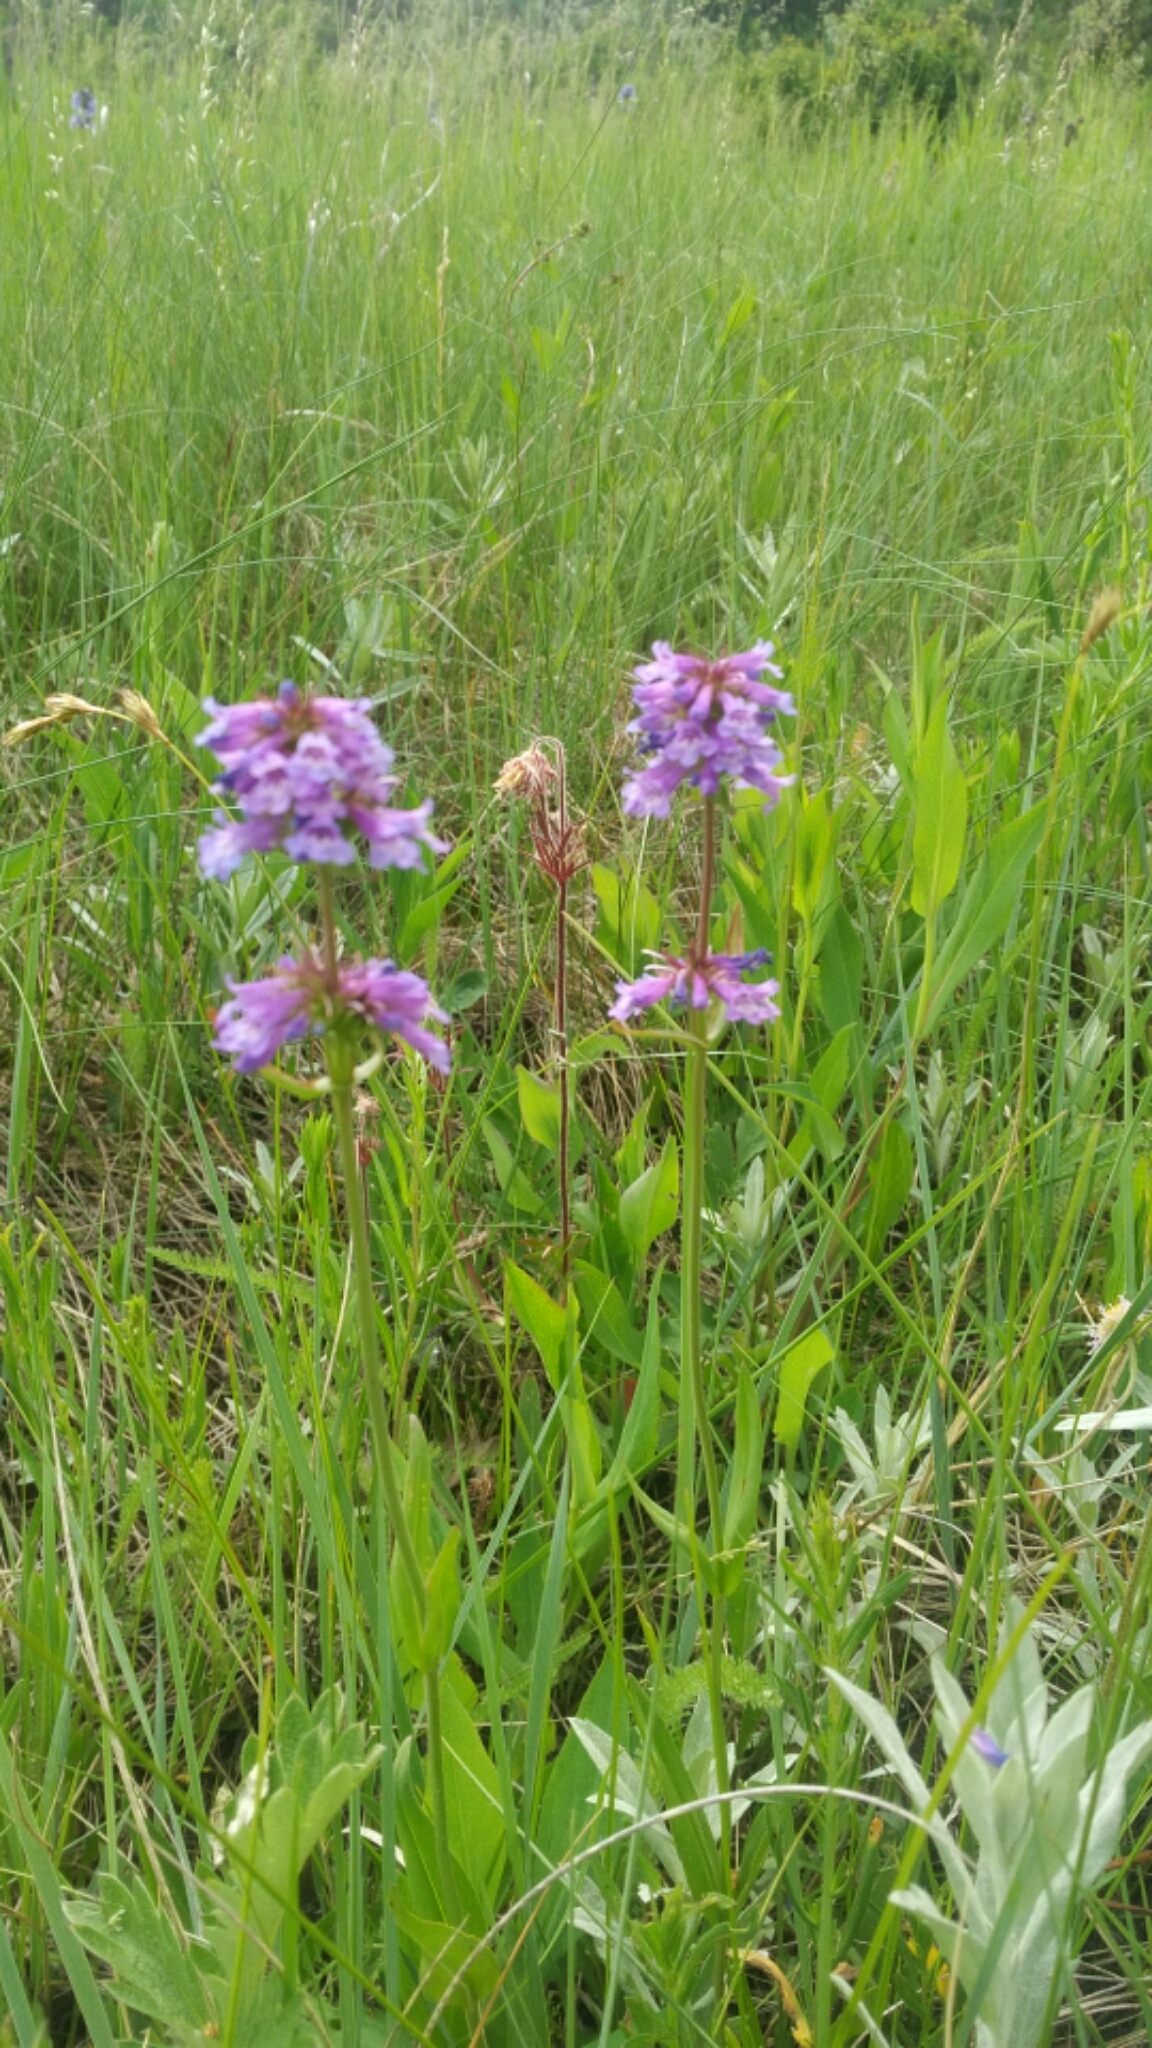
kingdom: Plantae
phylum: Tracheophyta
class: Magnoliopsida
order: Lamiales
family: Plantaginaceae
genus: Penstemon
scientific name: Penstemon procerus
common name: Small-flower penstemon
